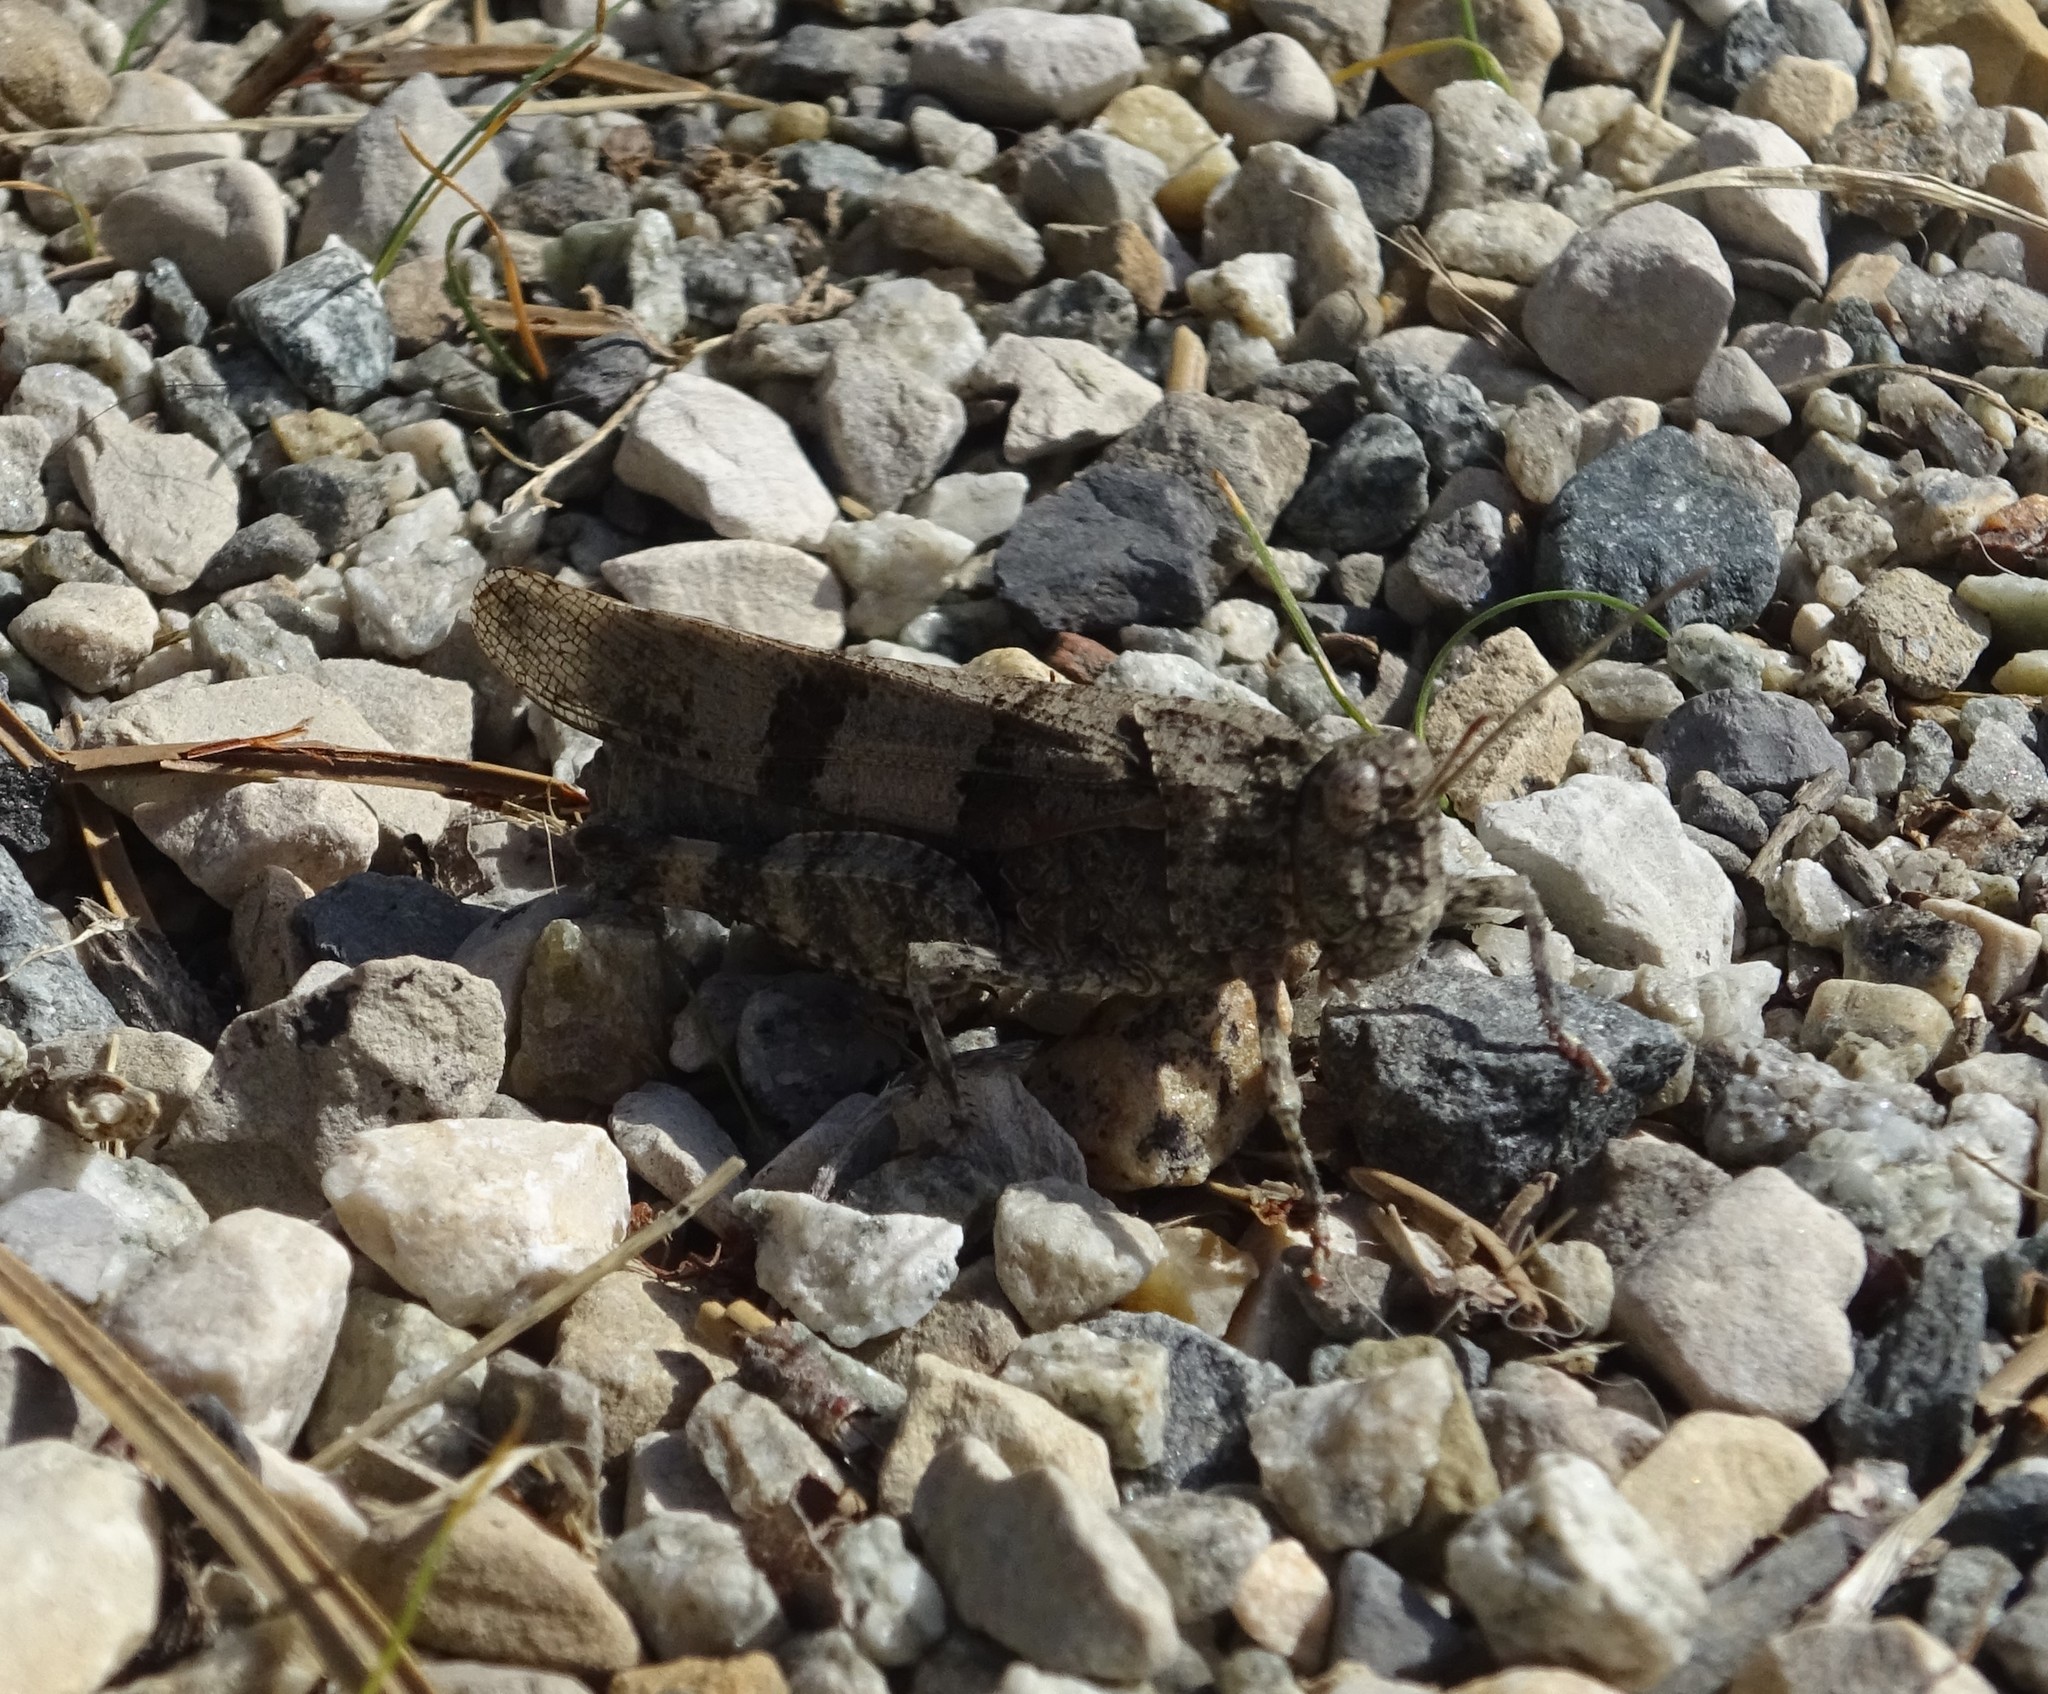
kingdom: Animalia
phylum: Arthropoda
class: Insecta
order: Orthoptera
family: Acrididae
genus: Oedipoda
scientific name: Oedipoda caerulescens
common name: Blue-winged grasshopper
